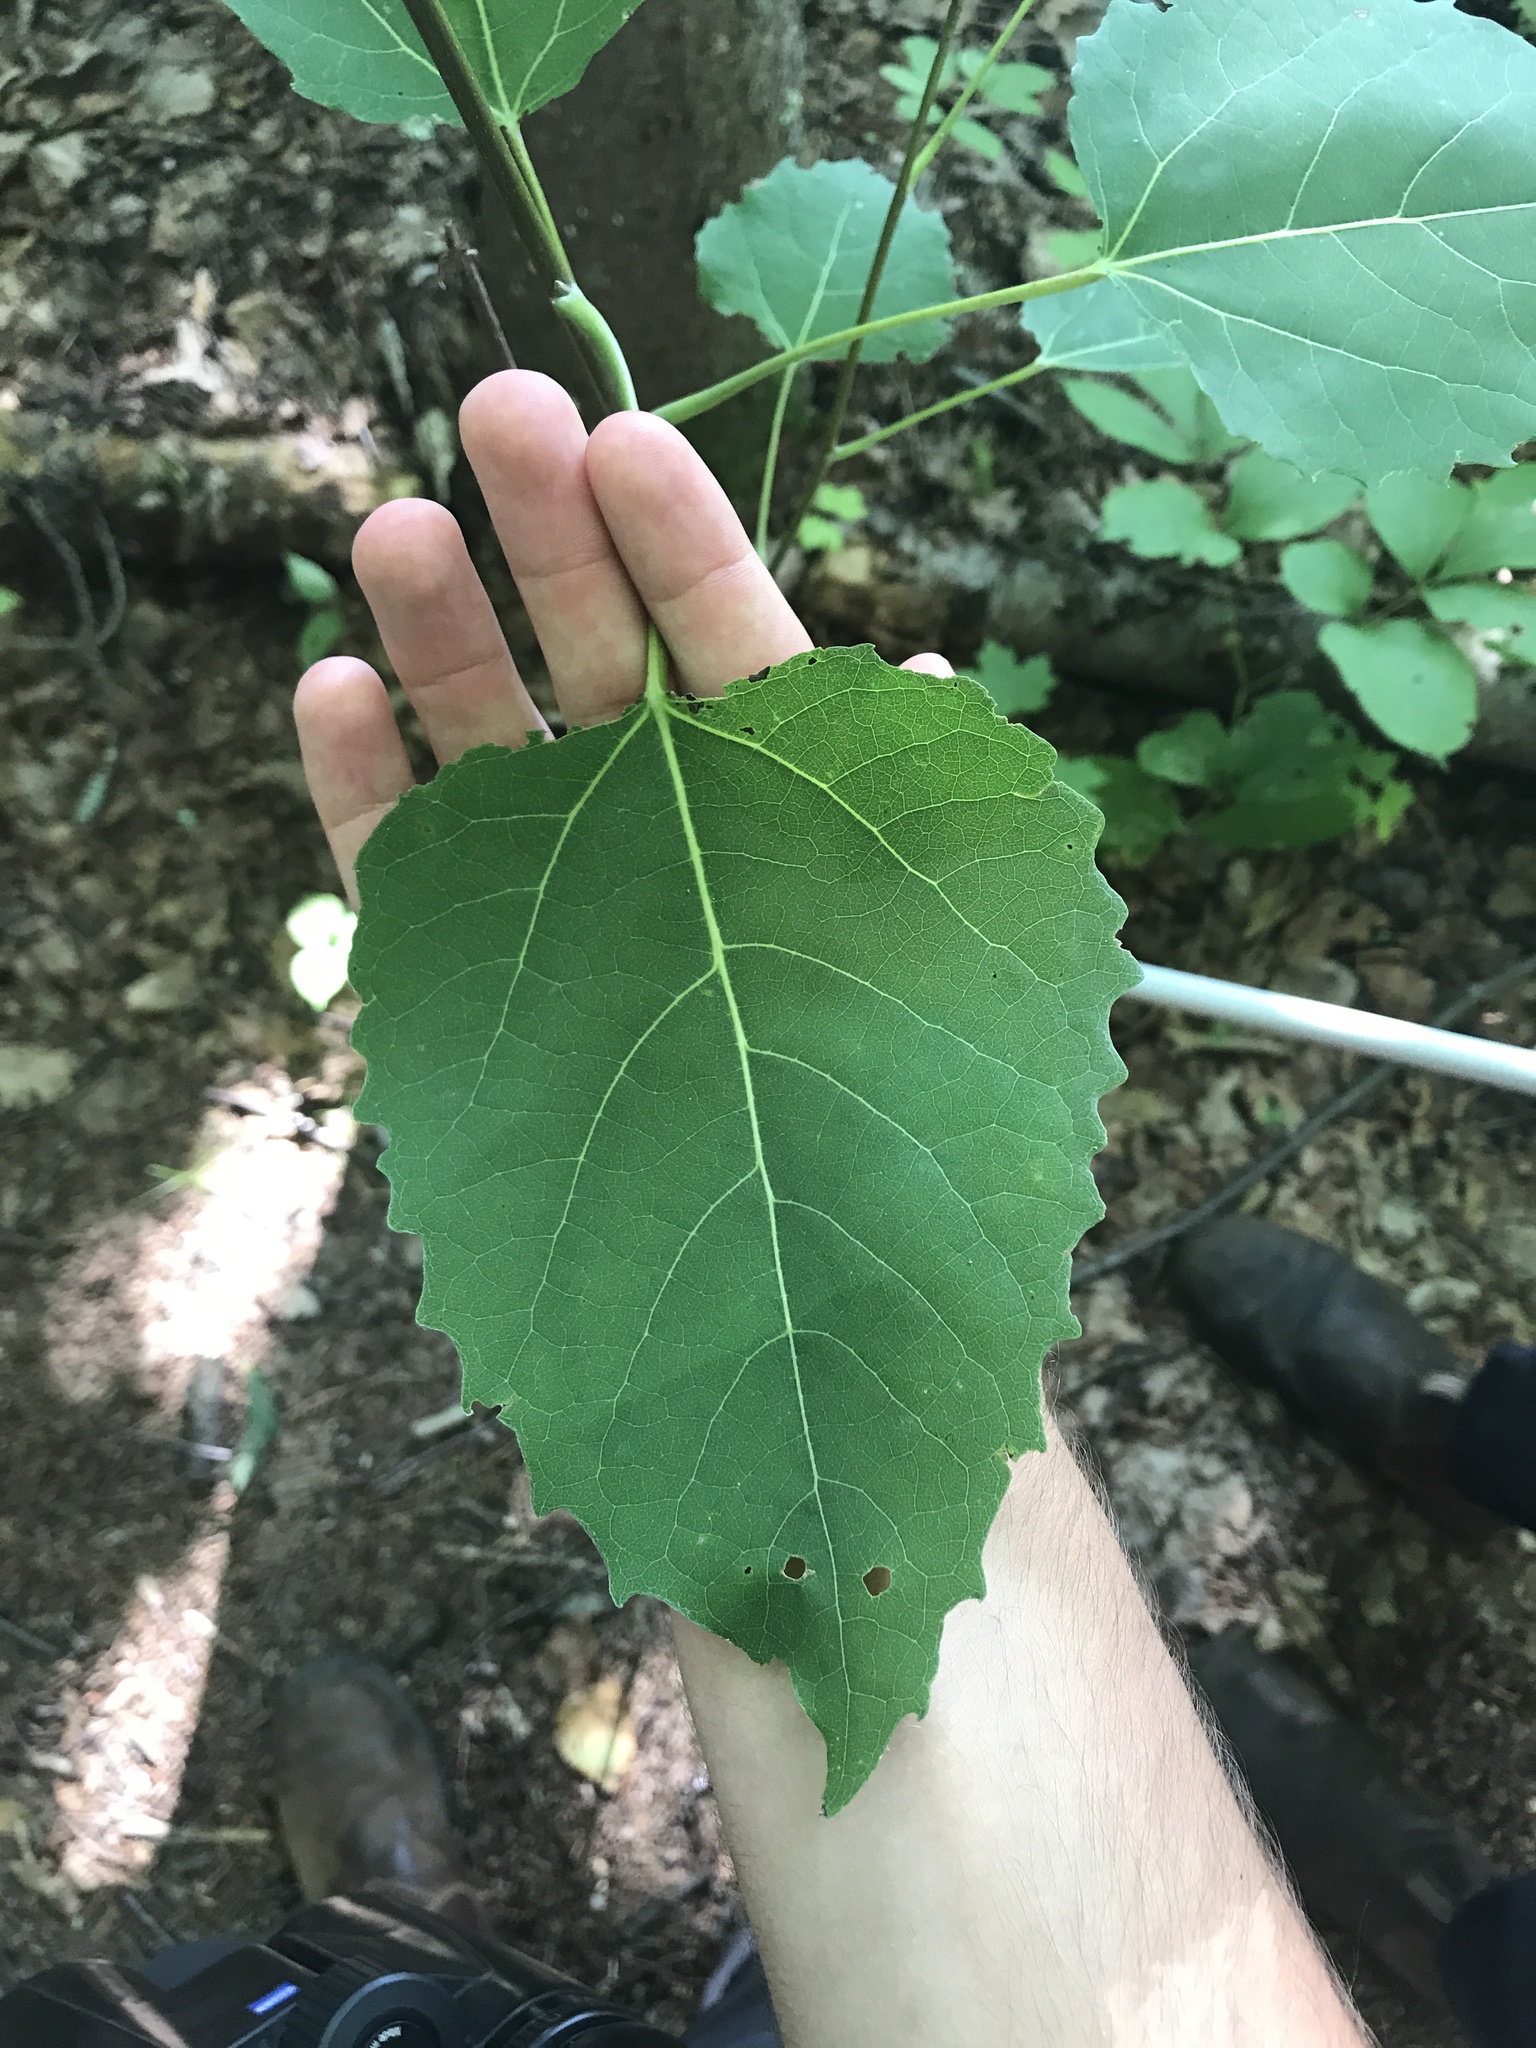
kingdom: Plantae
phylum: Tracheophyta
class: Magnoliopsida
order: Malpighiales
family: Salicaceae
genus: Populus
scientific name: Populus grandidentata
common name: Bigtooth aspen
